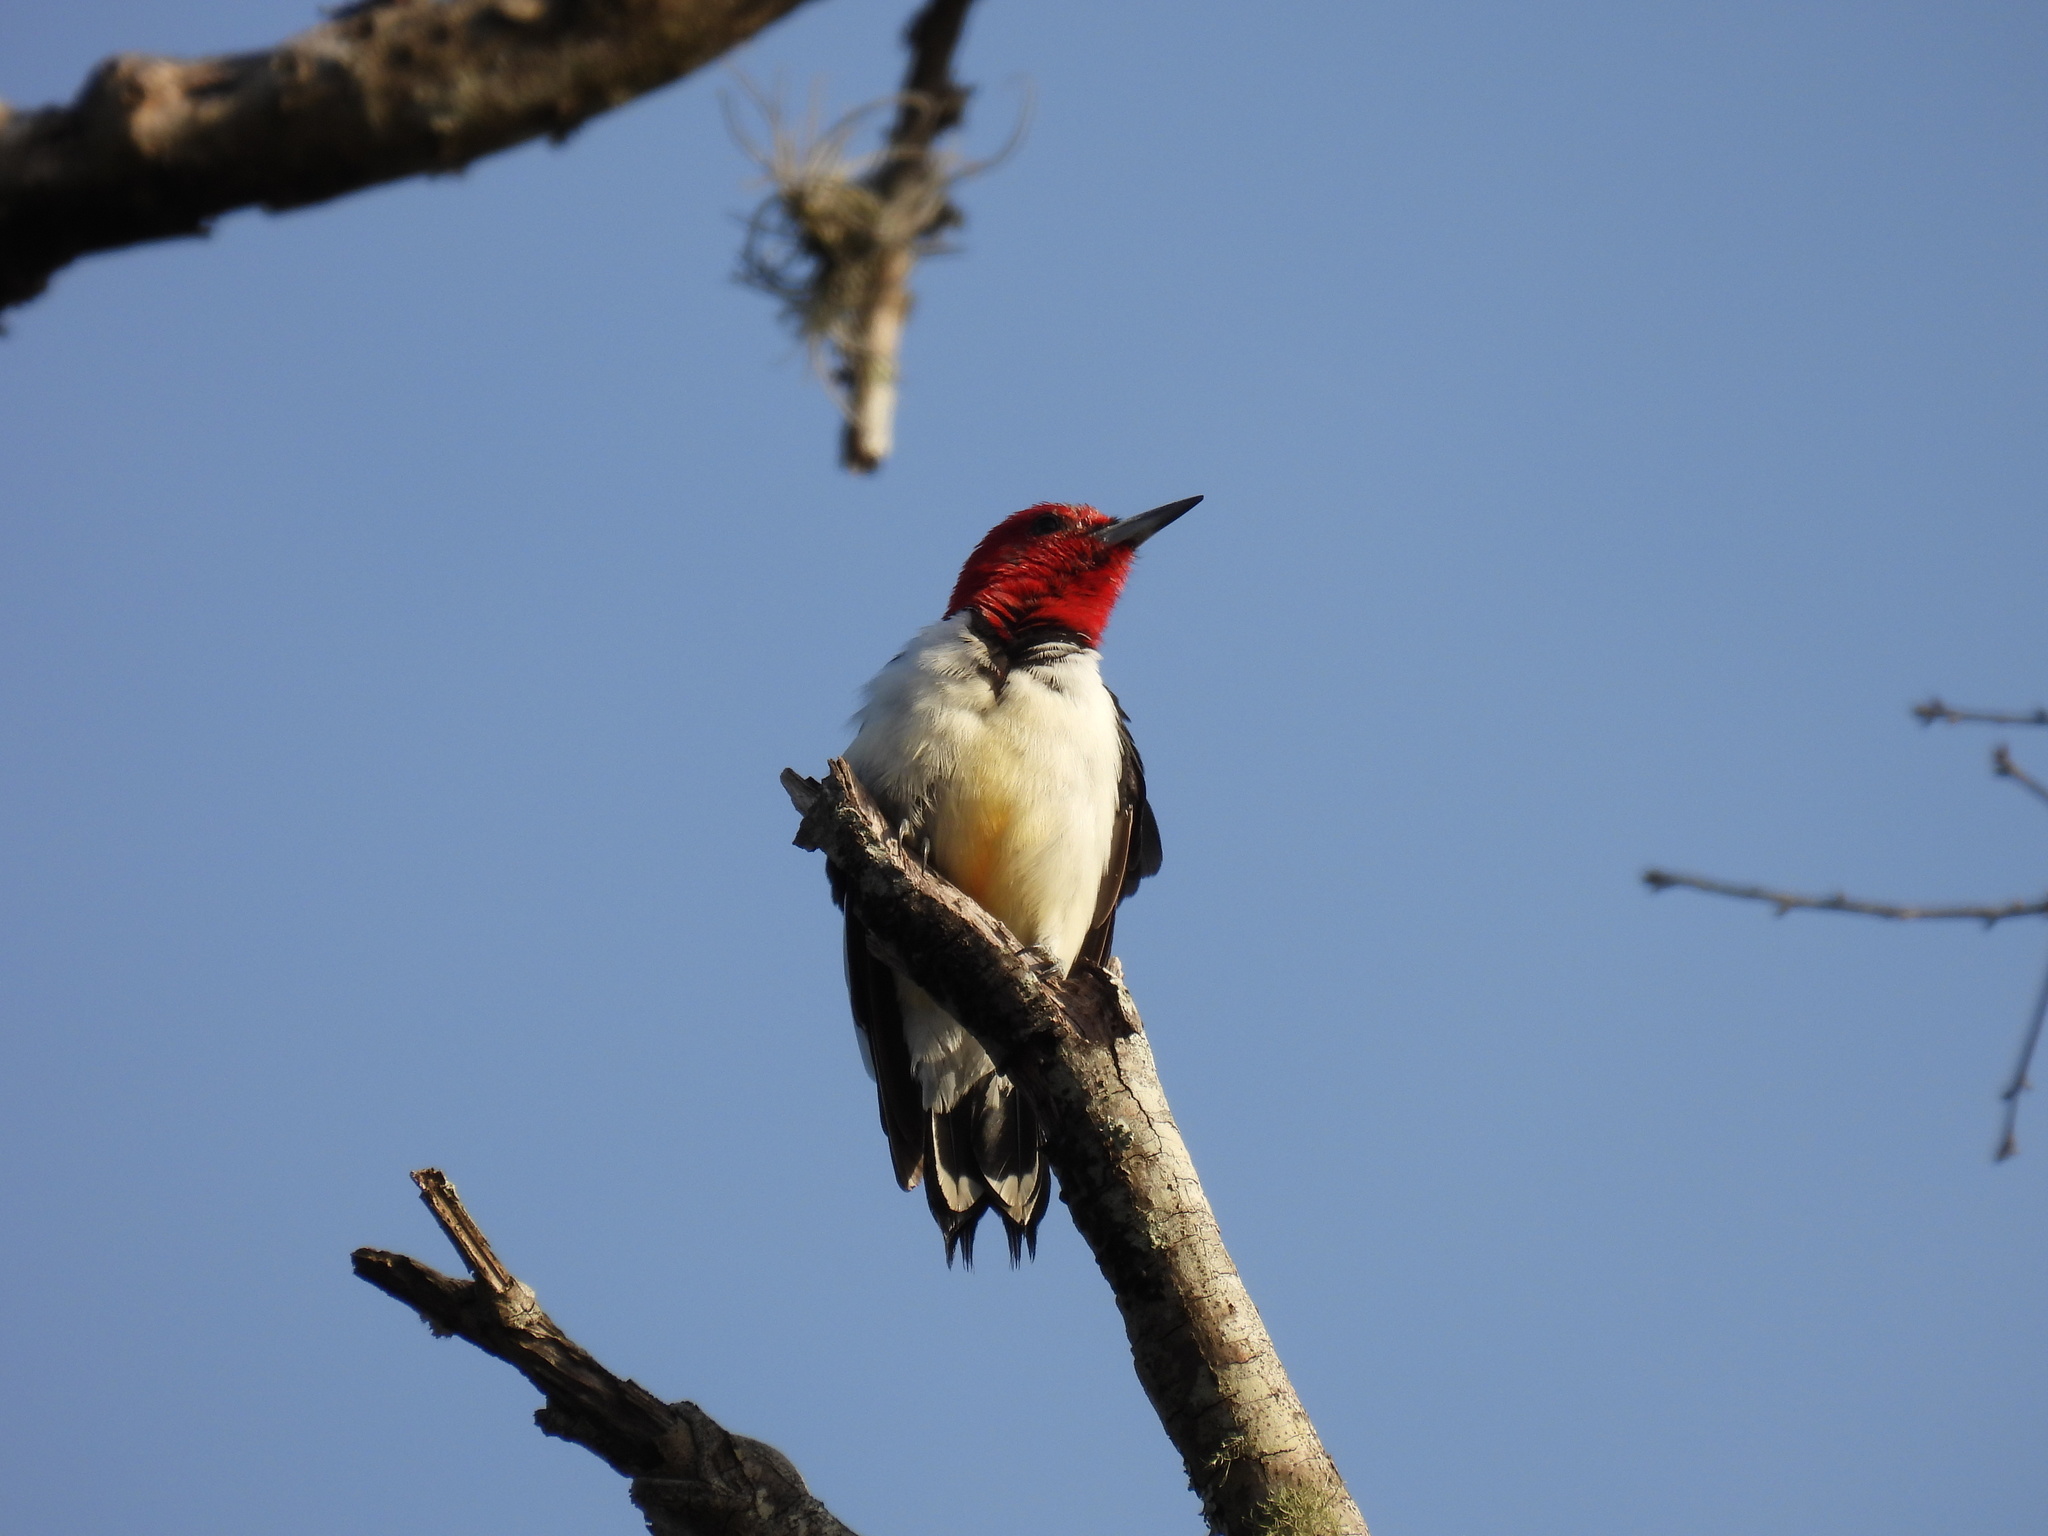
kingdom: Animalia
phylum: Chordata
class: Aves
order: Piciformes
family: Picidae
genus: Melanerpes
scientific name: Melanerpes erythrocephalus
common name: Red-headed woodpecker
